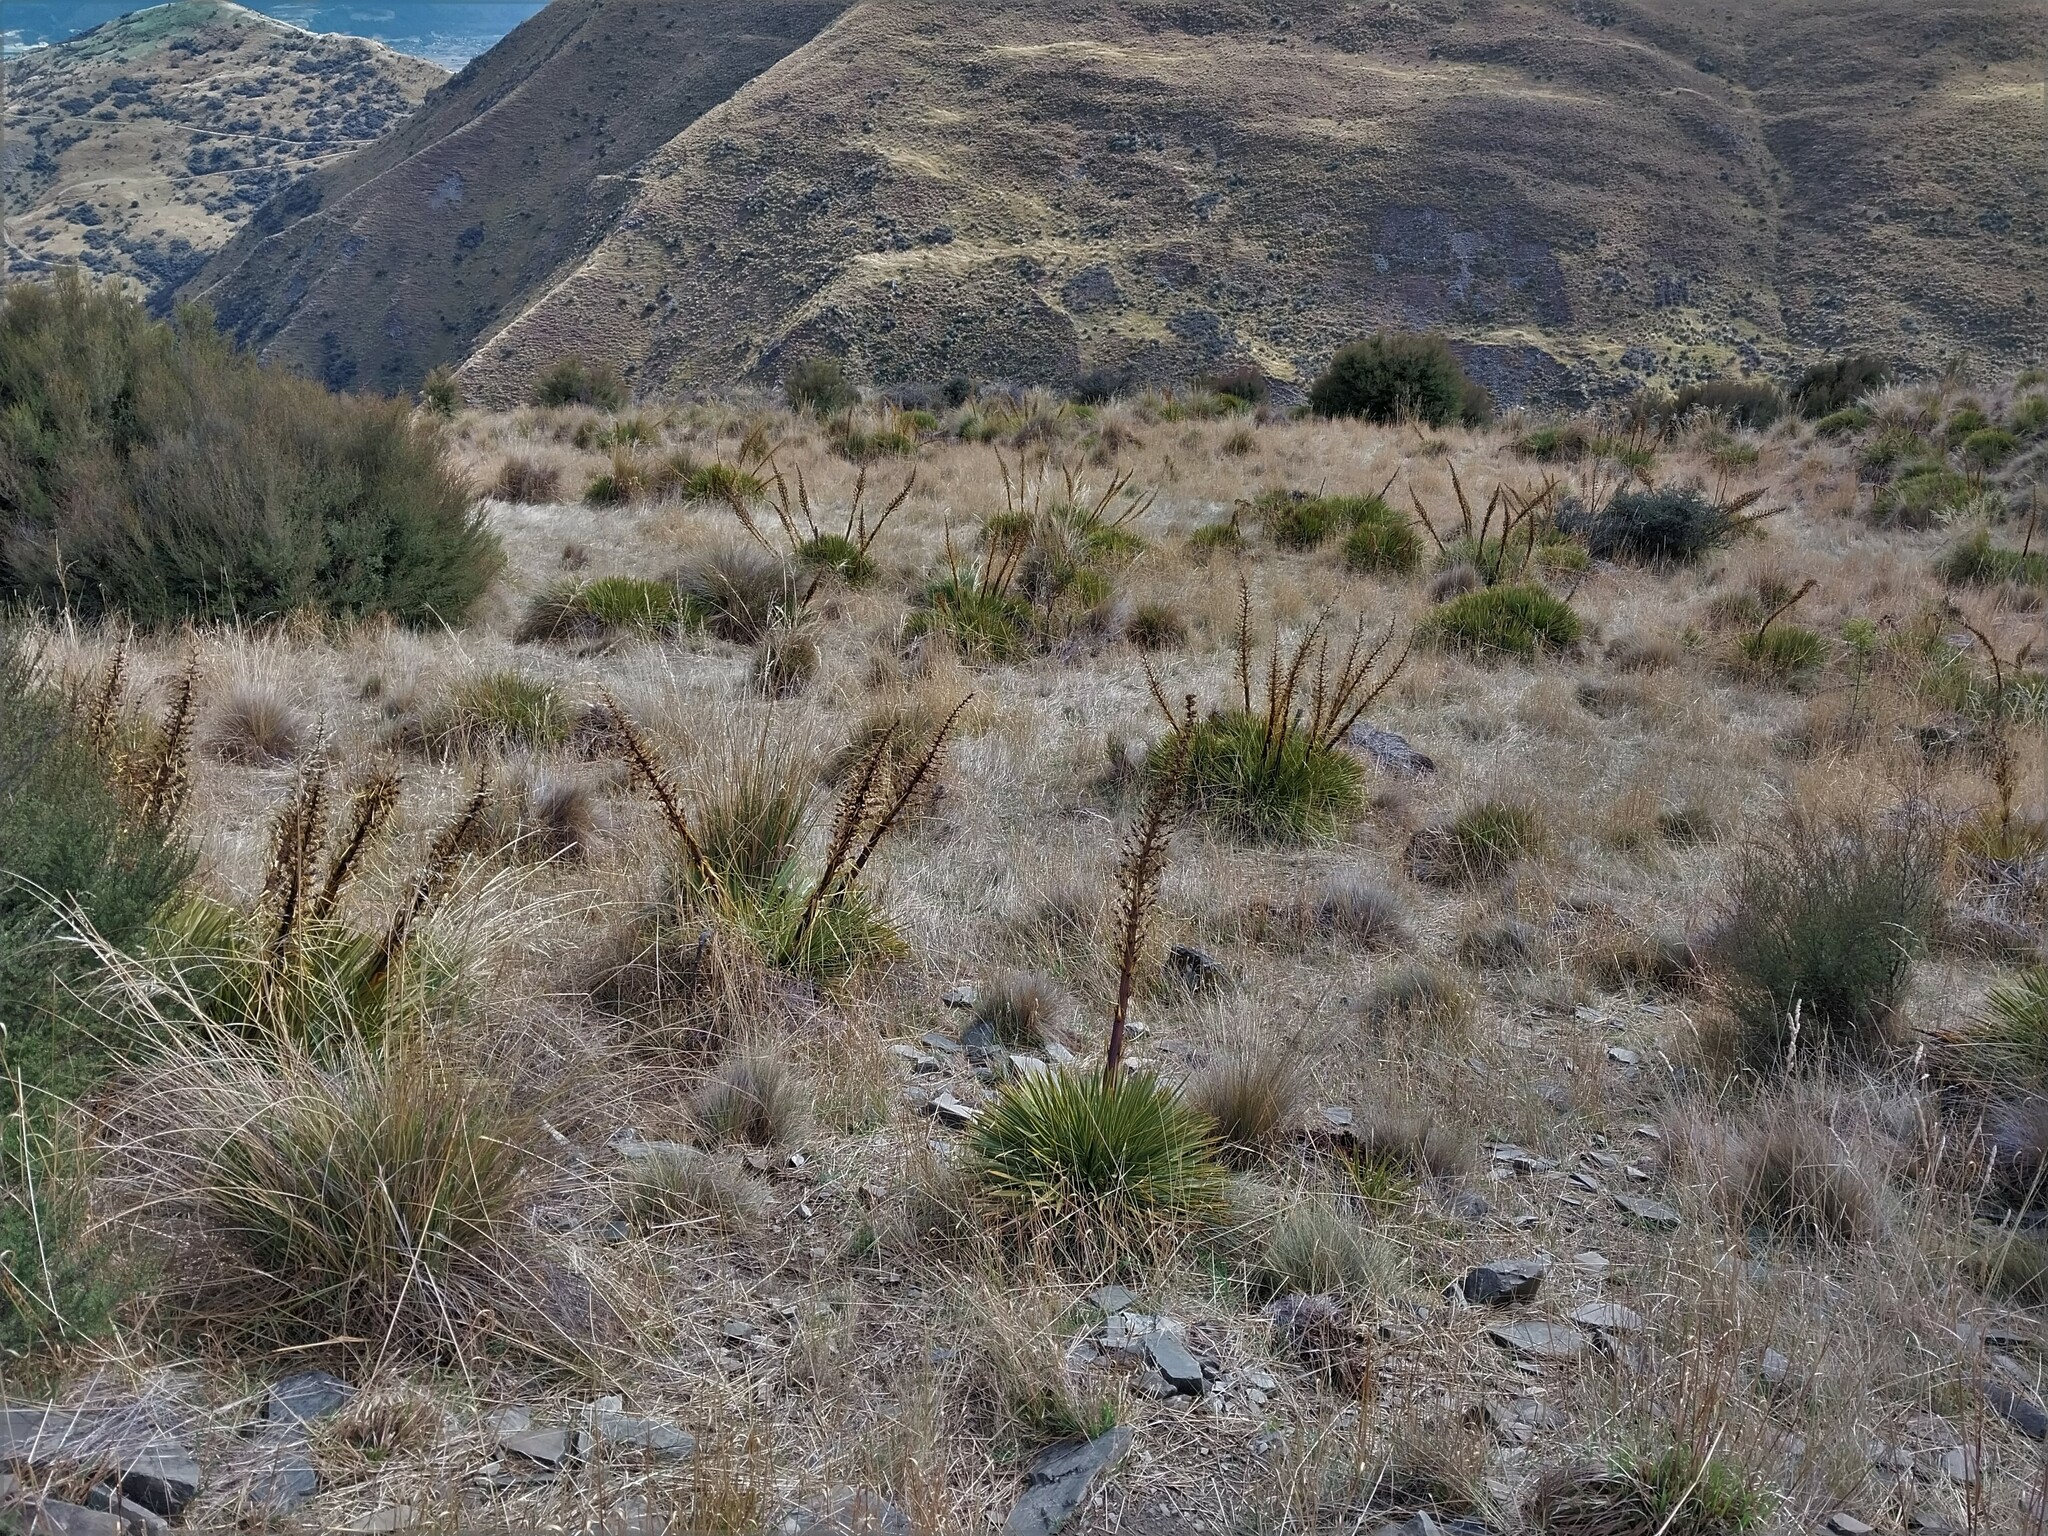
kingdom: Plantae
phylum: Tracheophyta
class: Magnoliopsida
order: Apiales
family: Apiaceae
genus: Aciphylla
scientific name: Aciphylla aurea
